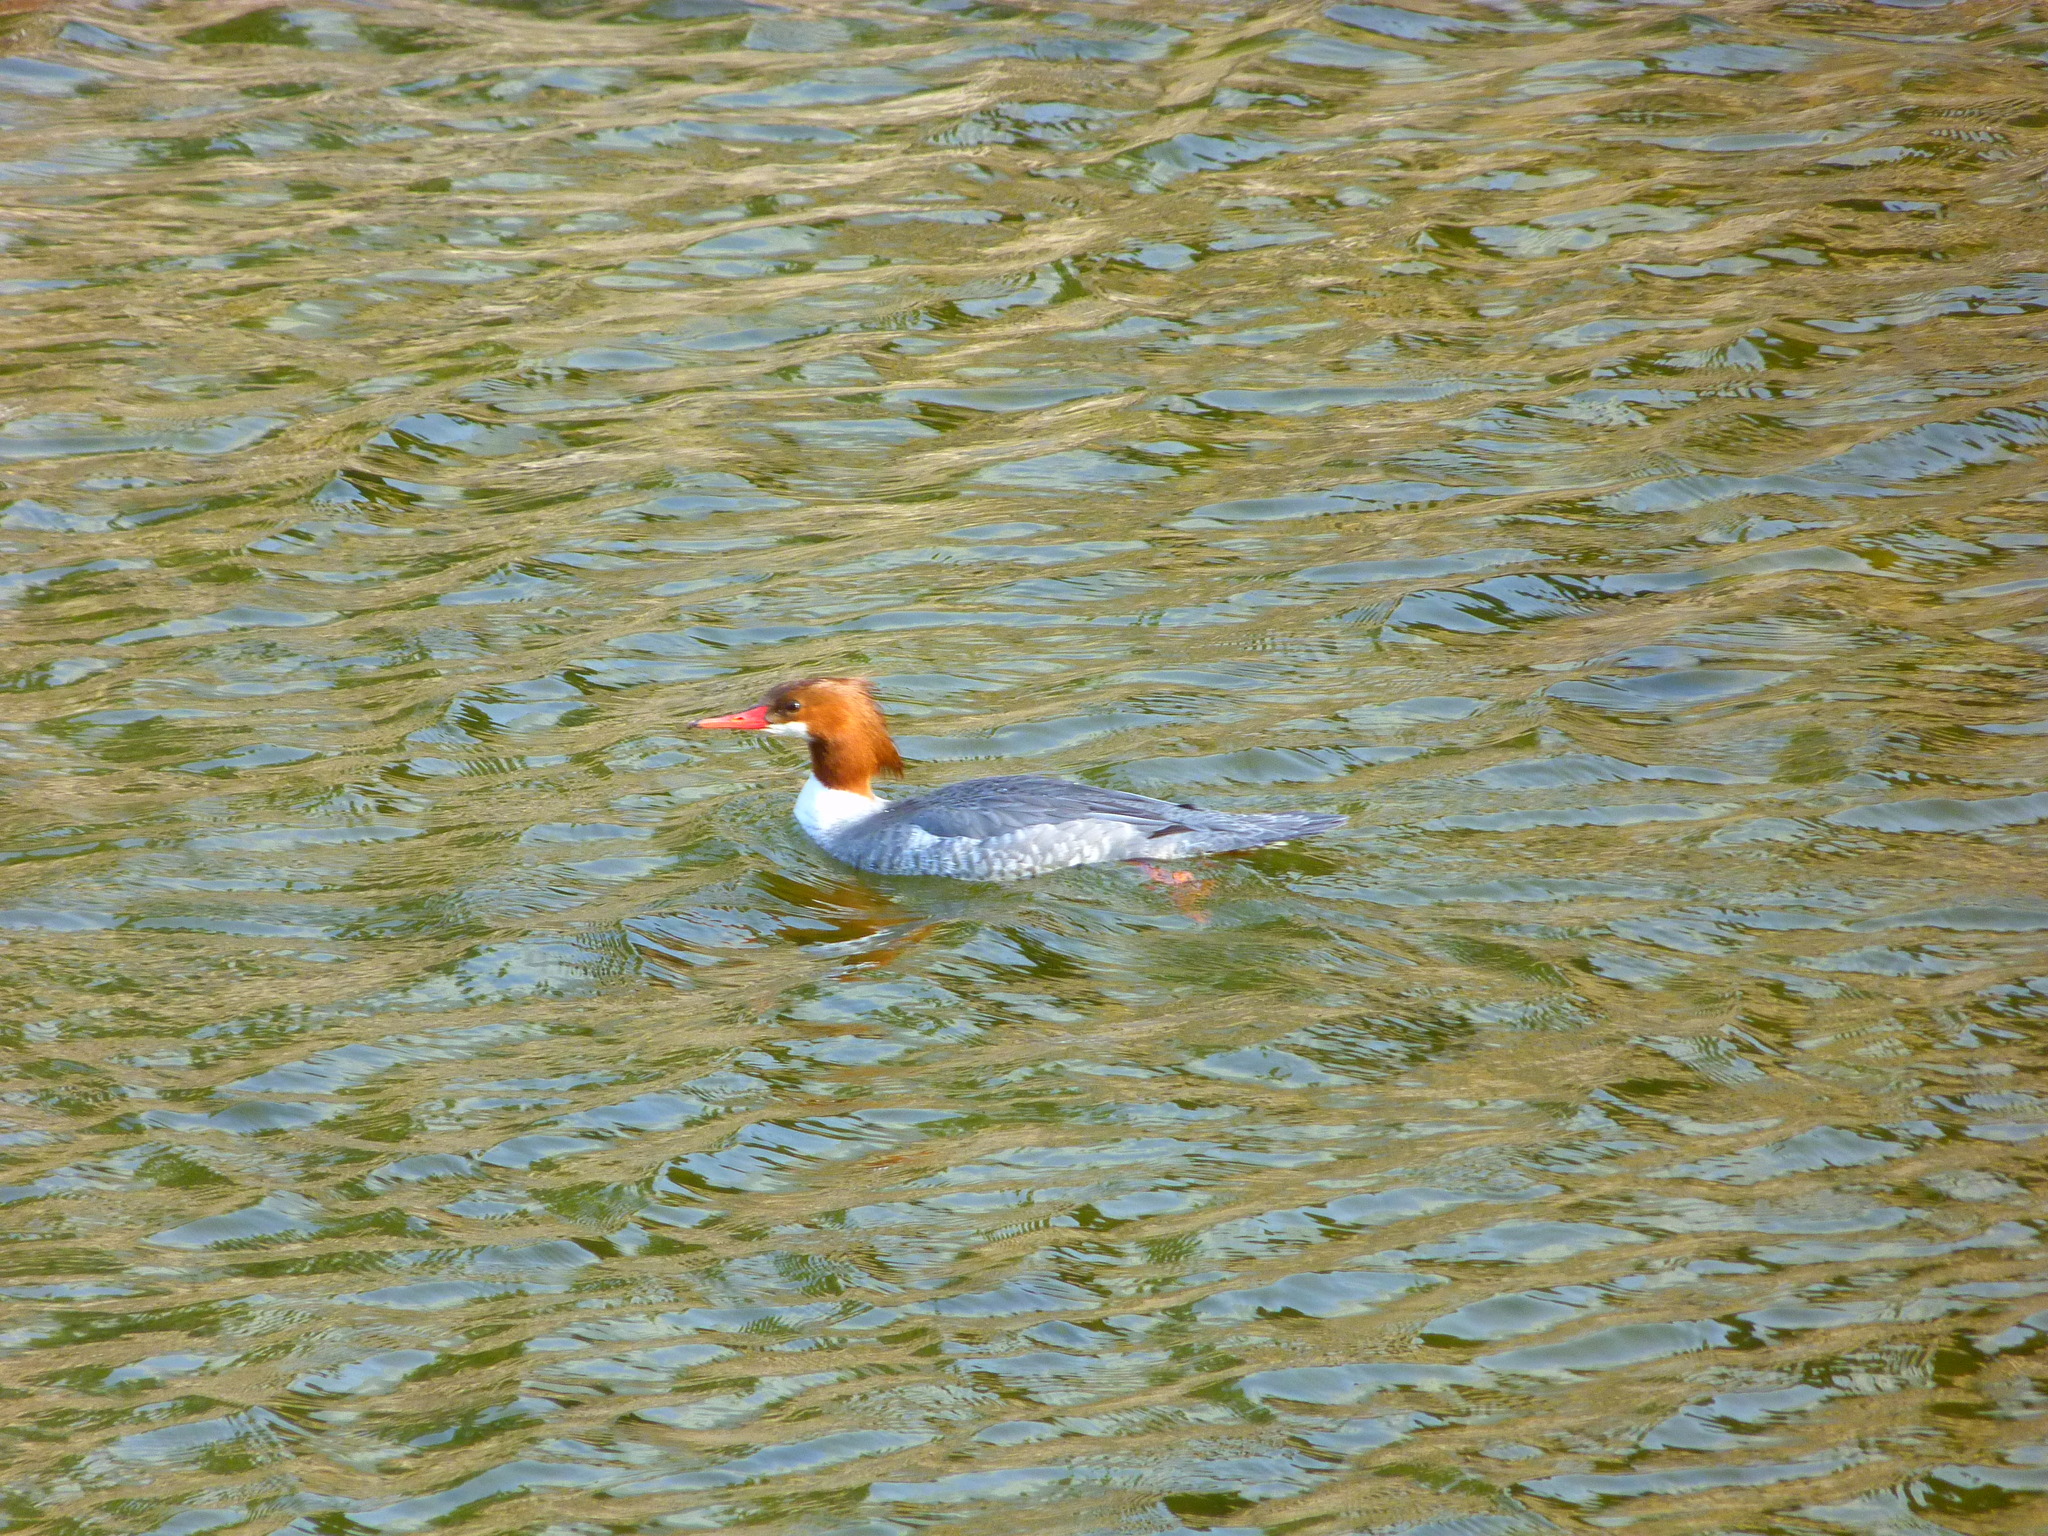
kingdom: Animalia
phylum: Chordata
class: Aves
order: Anseriformes
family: Anatidae
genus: Mergus
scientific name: Mergus merganser
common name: Common merganser
